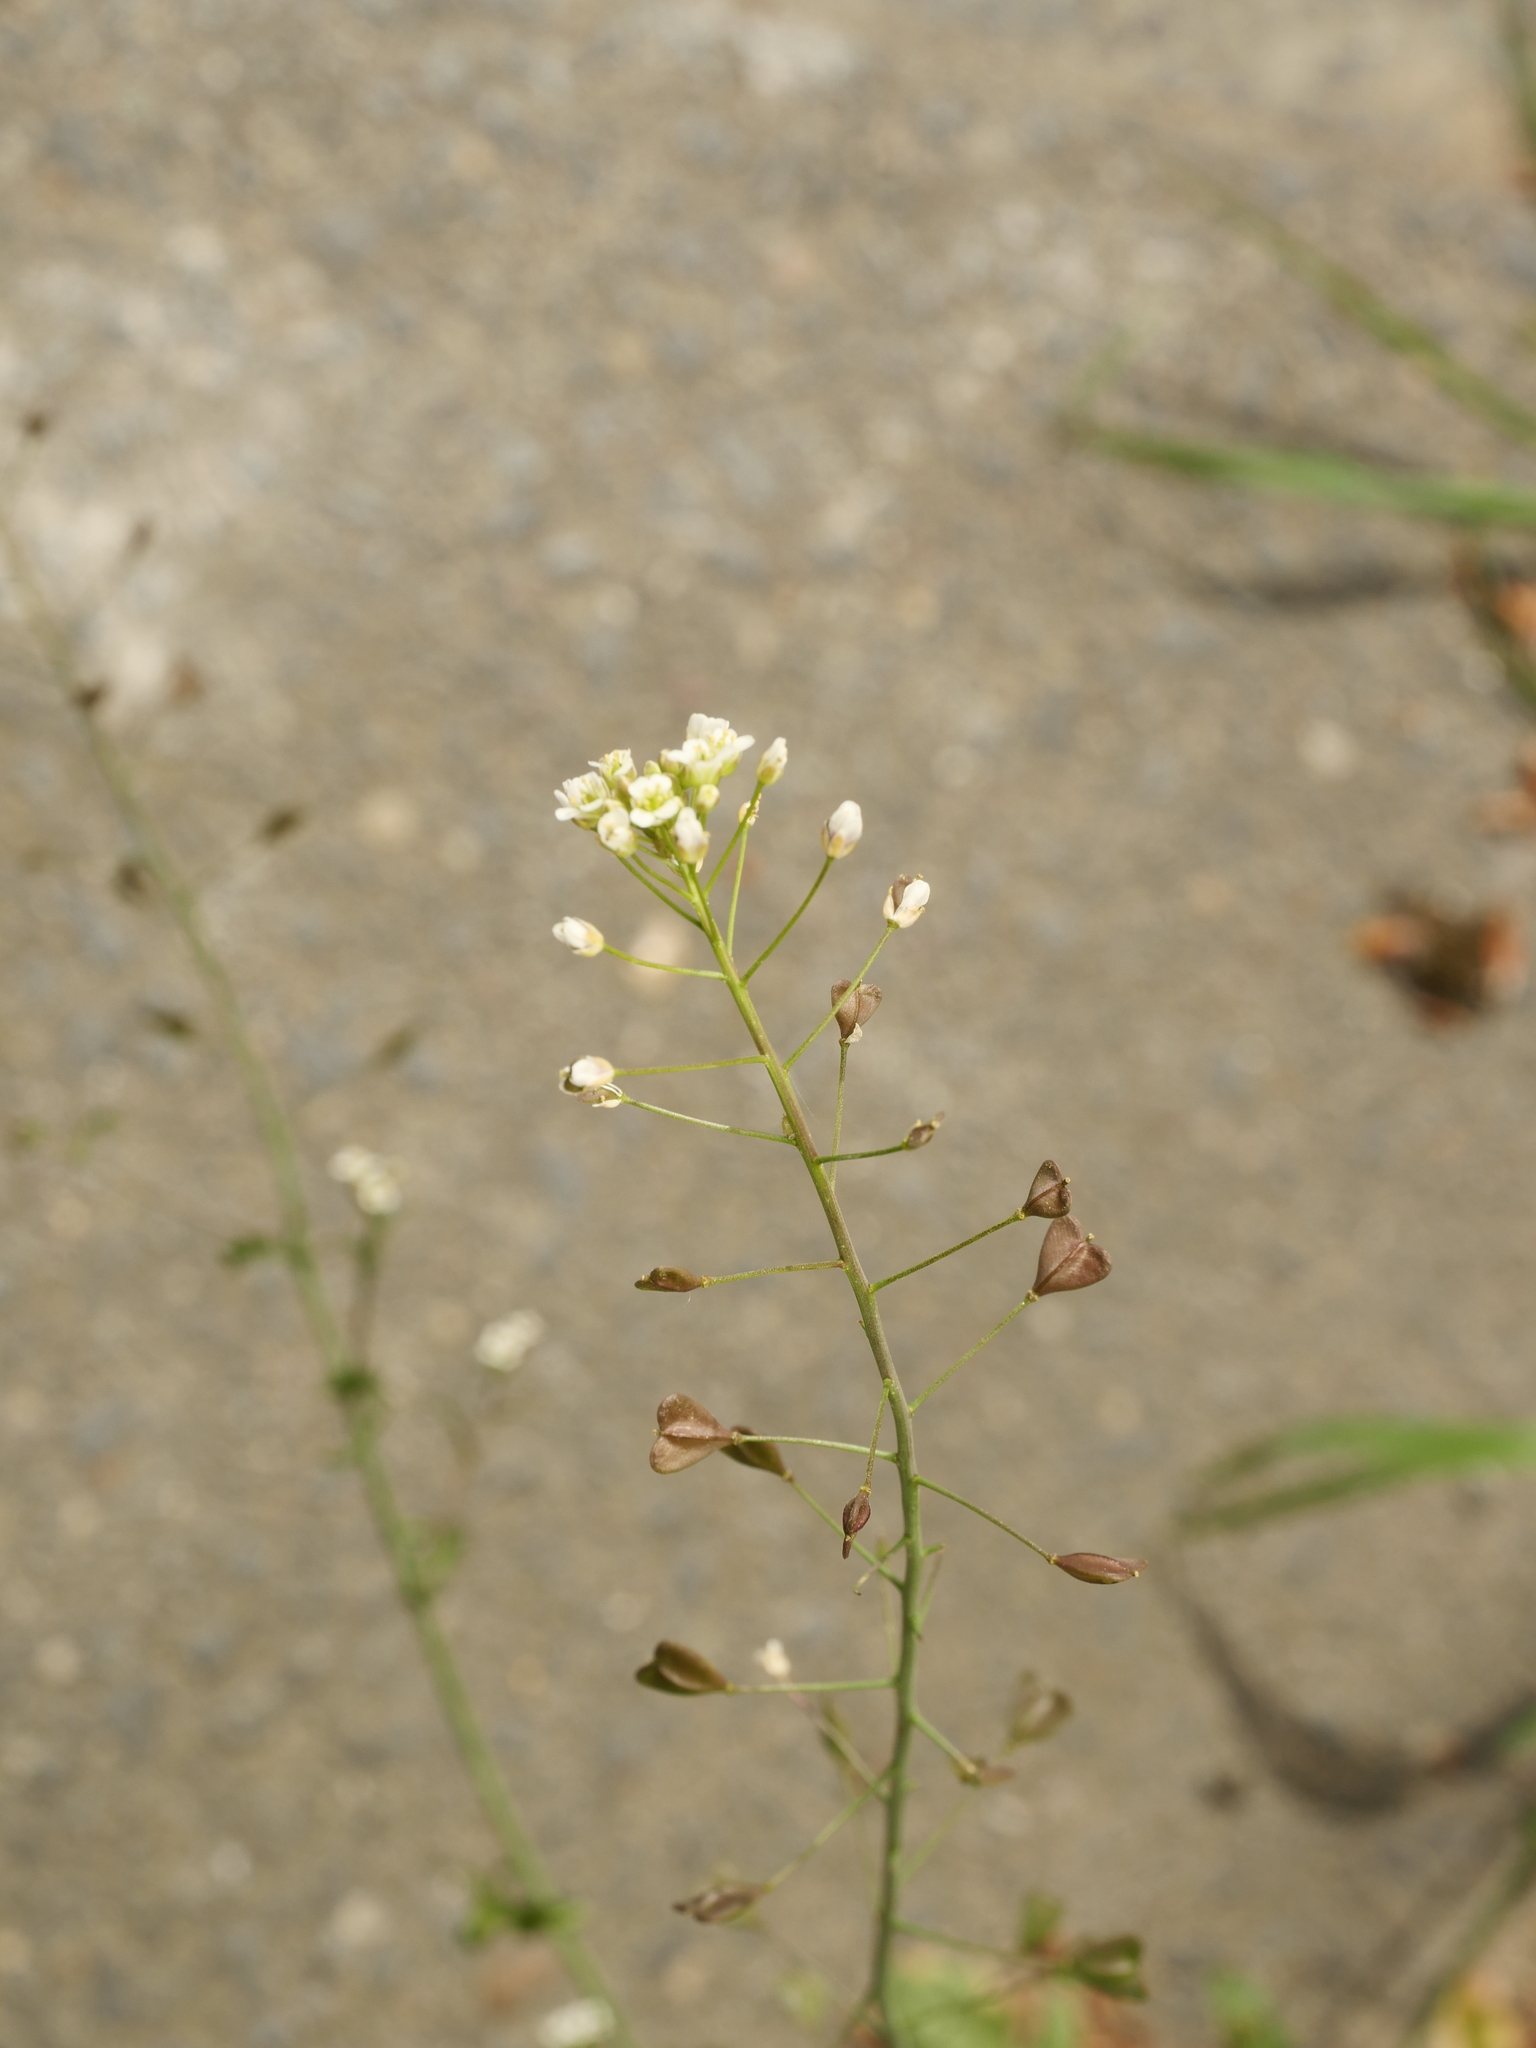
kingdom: Plantae
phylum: Tracheophyta
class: Magnoliopsida
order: Brassicales
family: Brassicaceae
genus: Capsella
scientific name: Capsella bursa-pastoris
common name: Shepherd's purse
